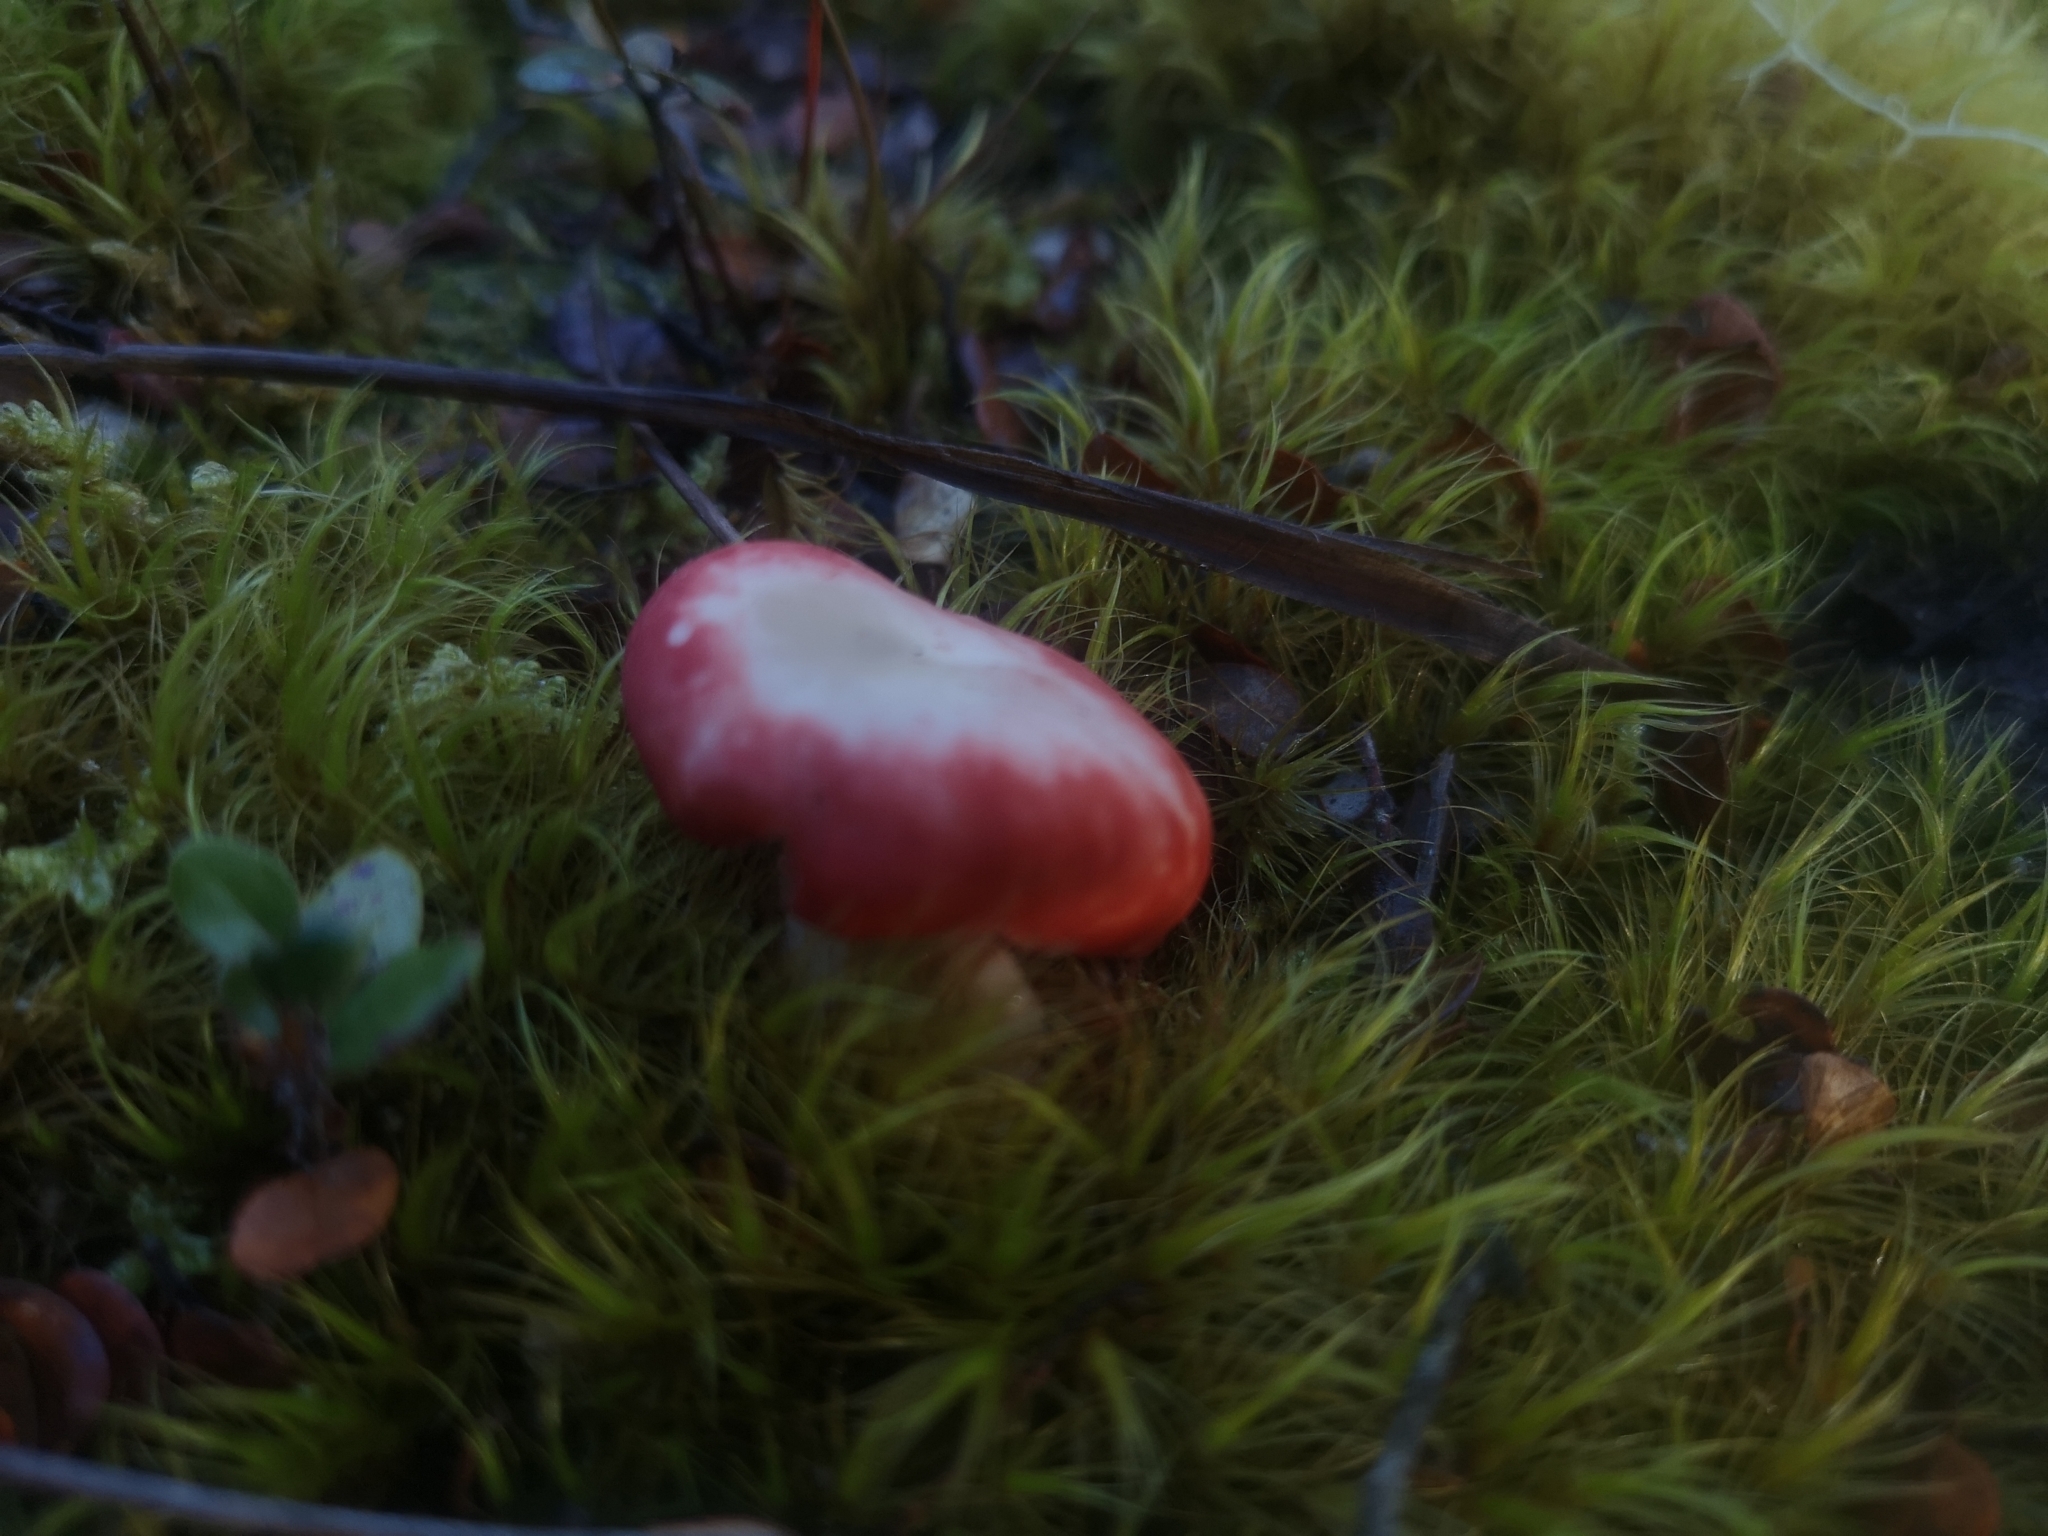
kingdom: Fungi
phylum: Basidiomycota
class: Agaricomycetes
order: Russulales
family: Russulaceae
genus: Russula
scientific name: Russula kermesina
